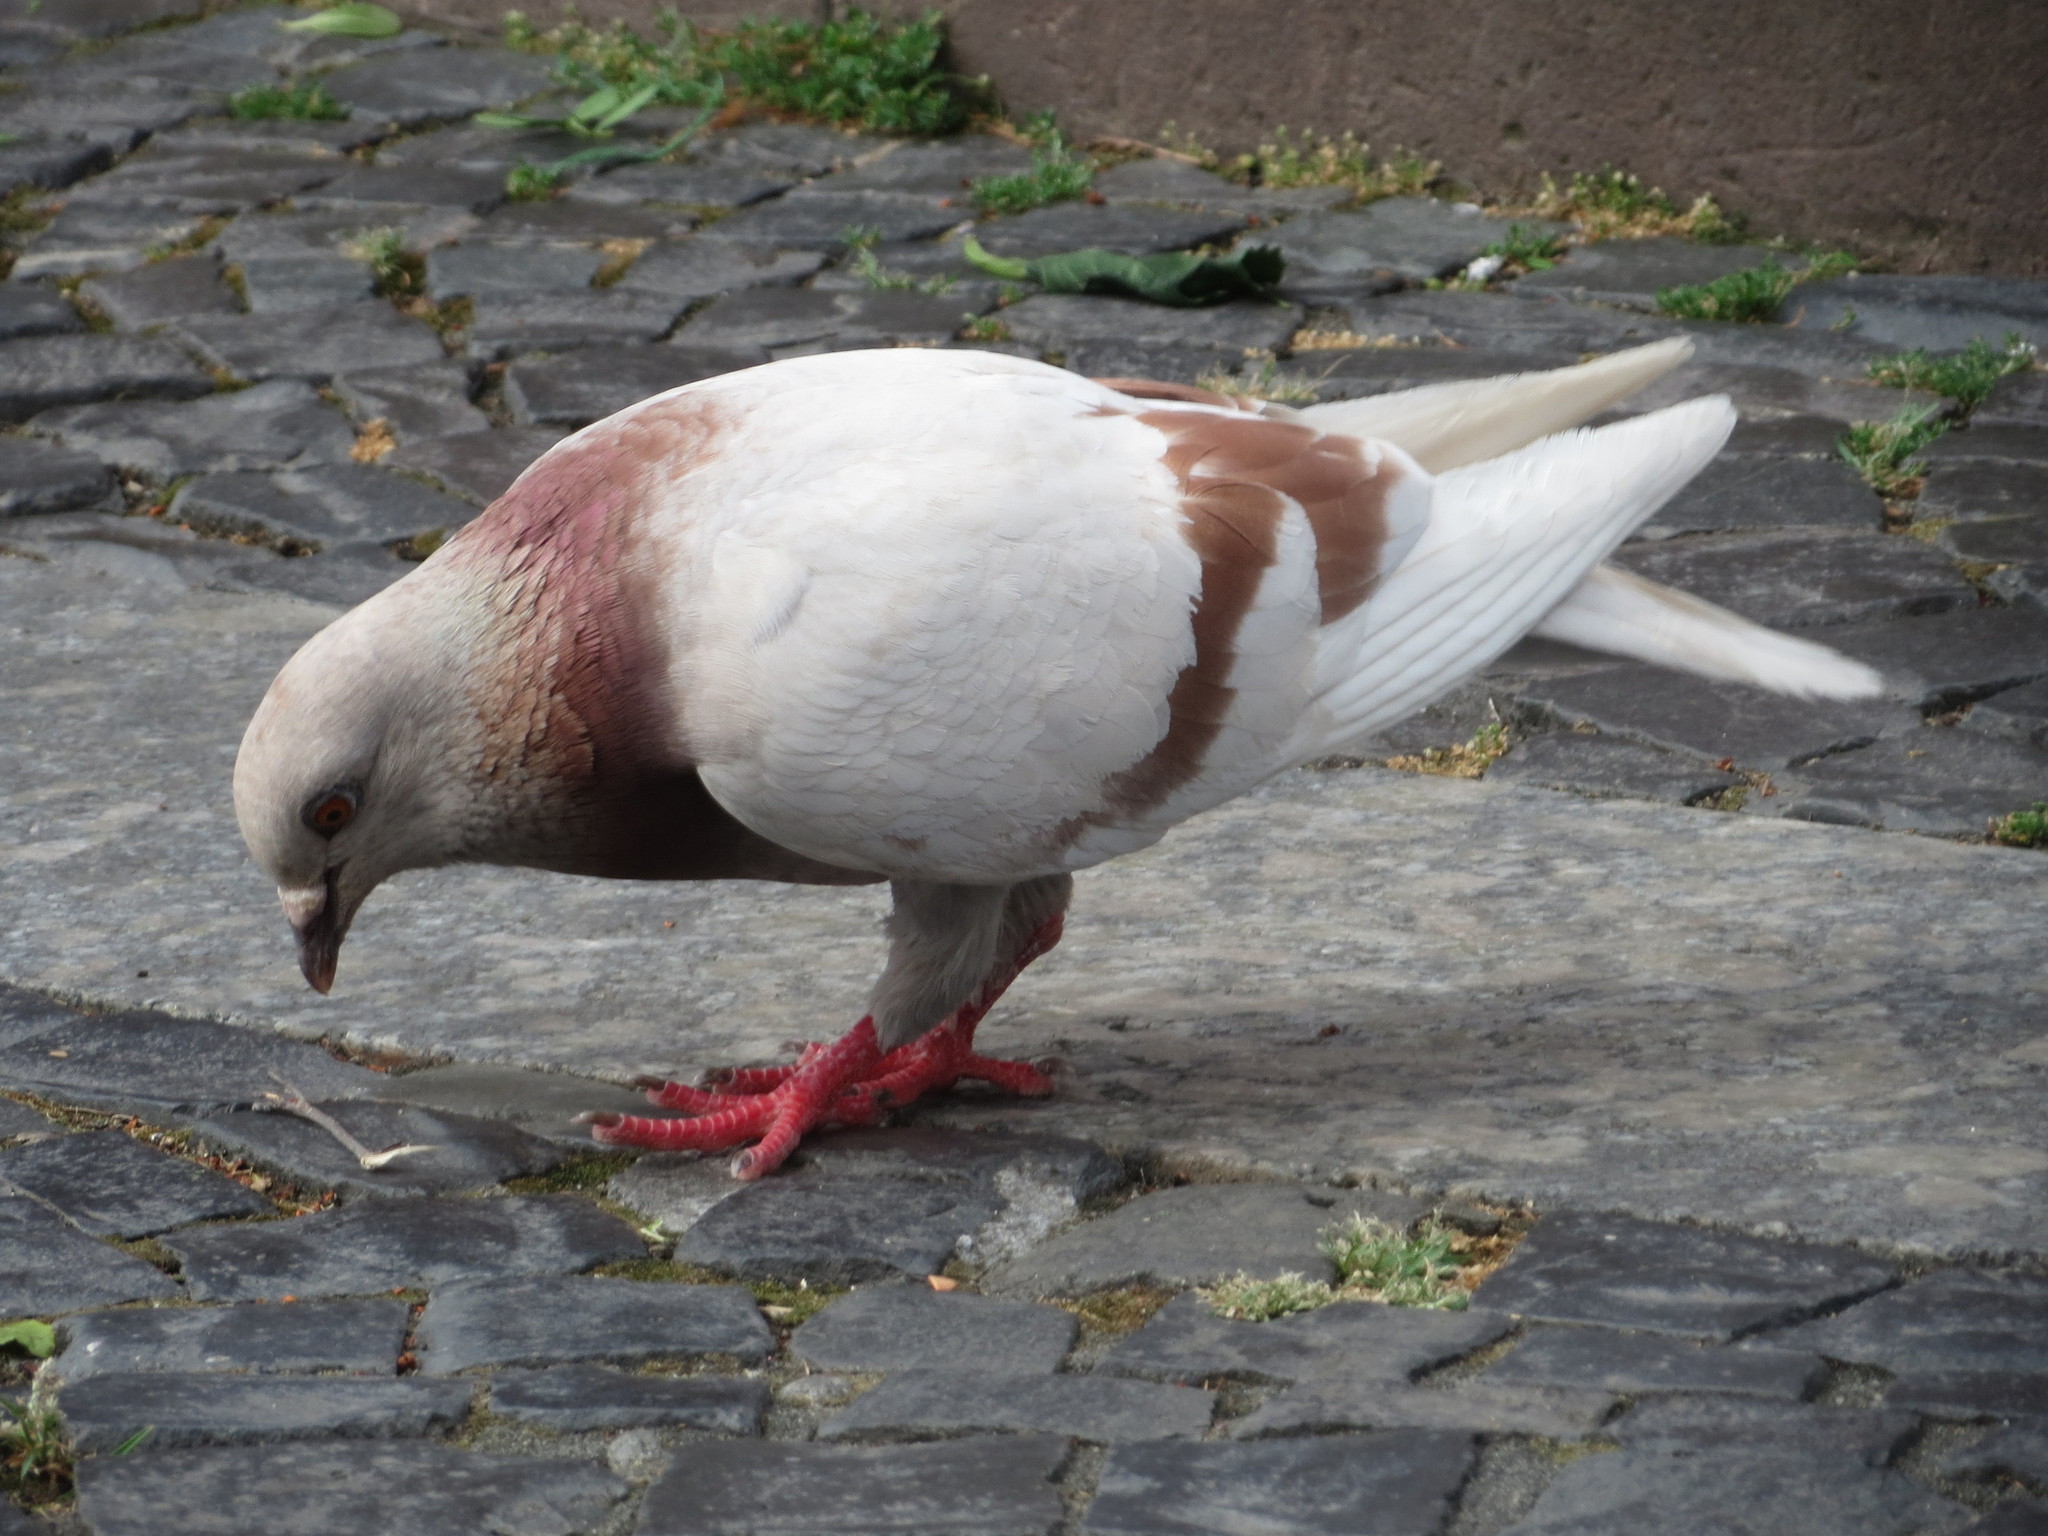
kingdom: Animalia
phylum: Chordata
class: Aves
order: Columbiformes
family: Columbidae
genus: Columba
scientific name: Columba livia
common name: Rock pigeon
